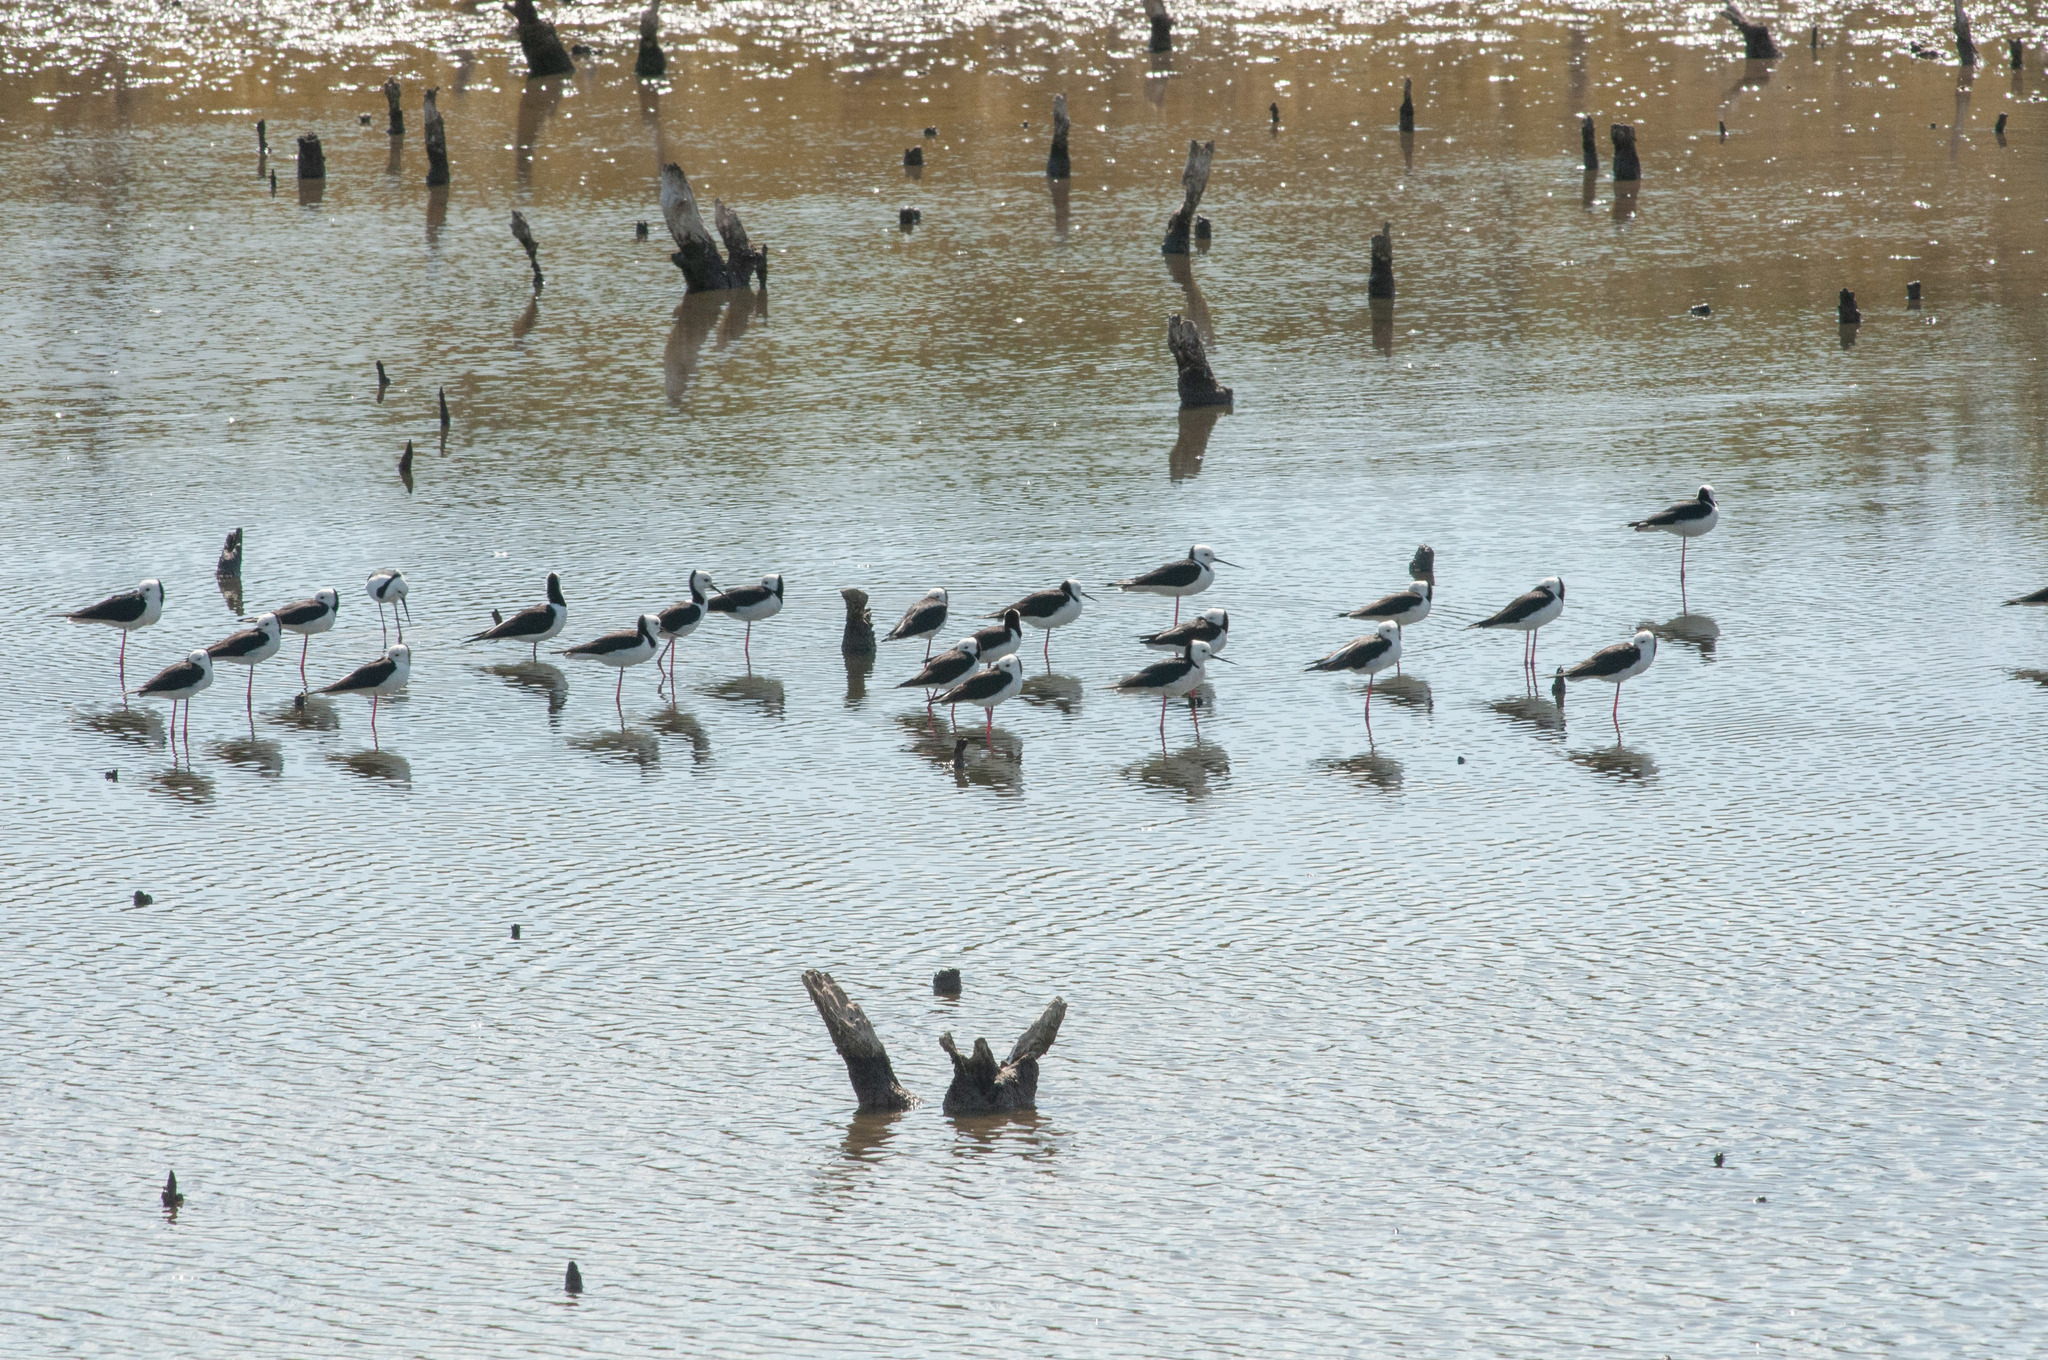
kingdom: Animalia
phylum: Chordata
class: Aves
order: Charadriiformes
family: Recurvirostridae
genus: Himantopus
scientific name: Himantopus leucocephalus
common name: White-headed stilt
